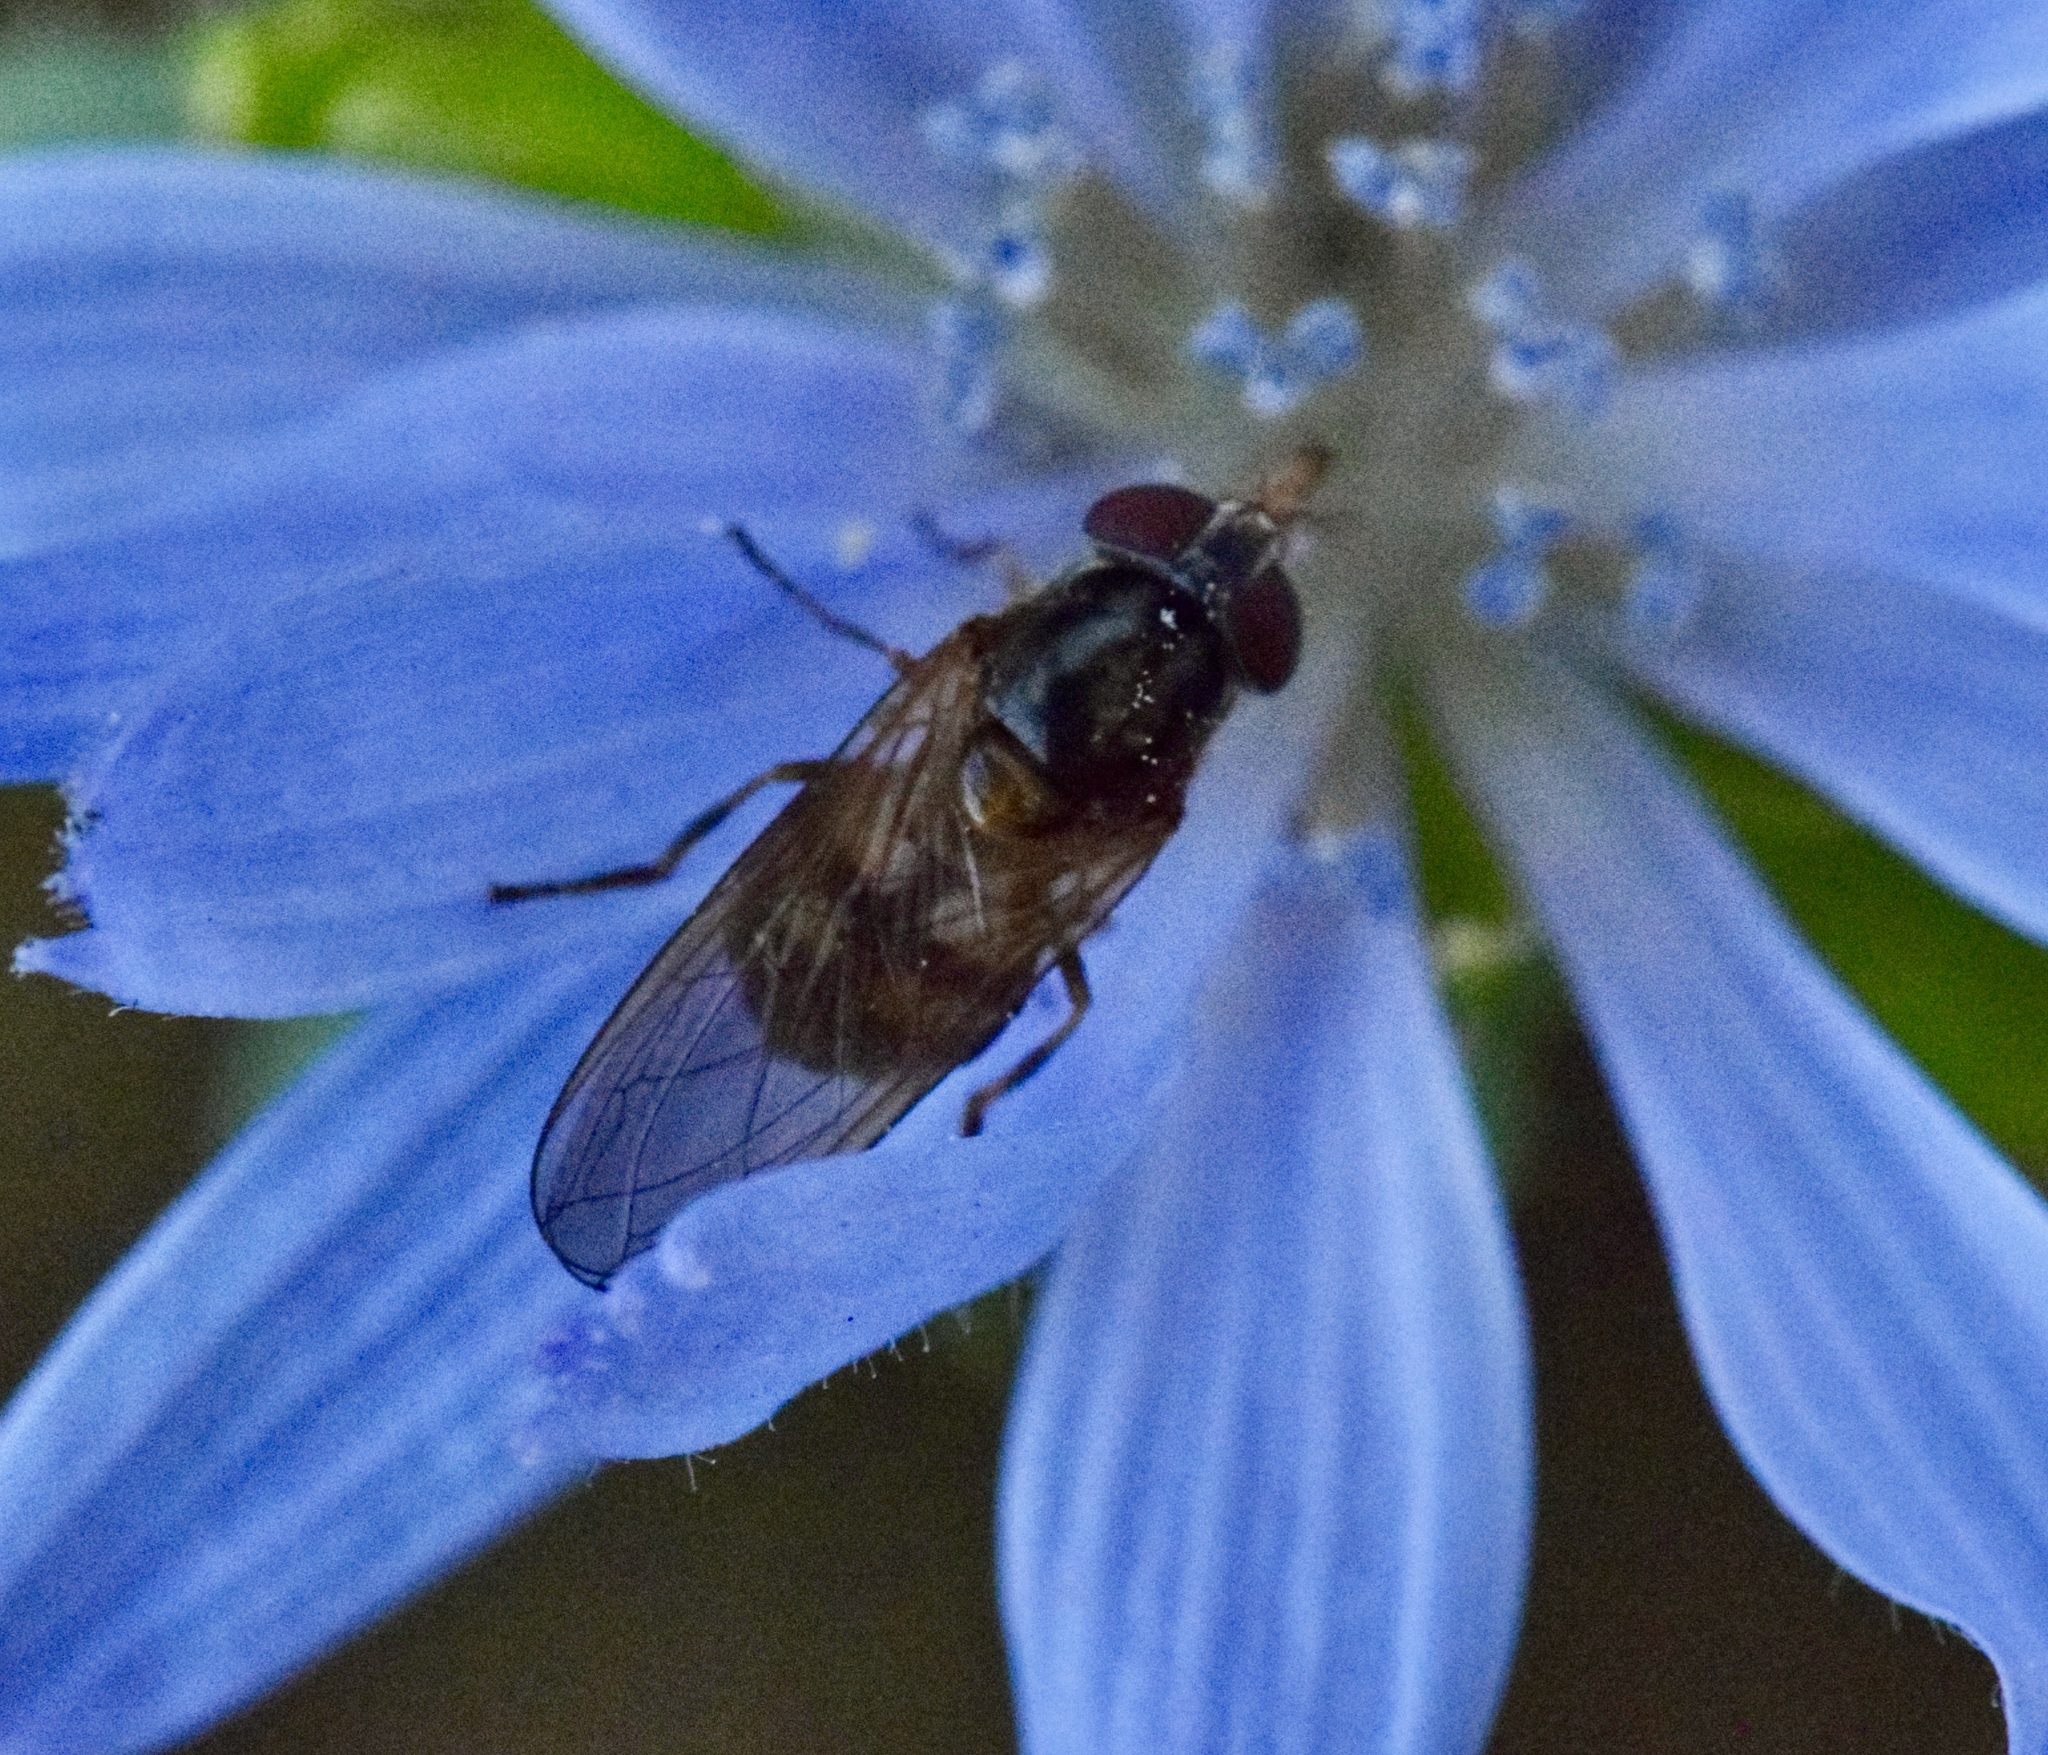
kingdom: Animalia
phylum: Arthropoda
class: Insecta
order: Diptera
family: Syrphidae
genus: Rhingia
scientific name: Rhingia nasica
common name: American snout fly
